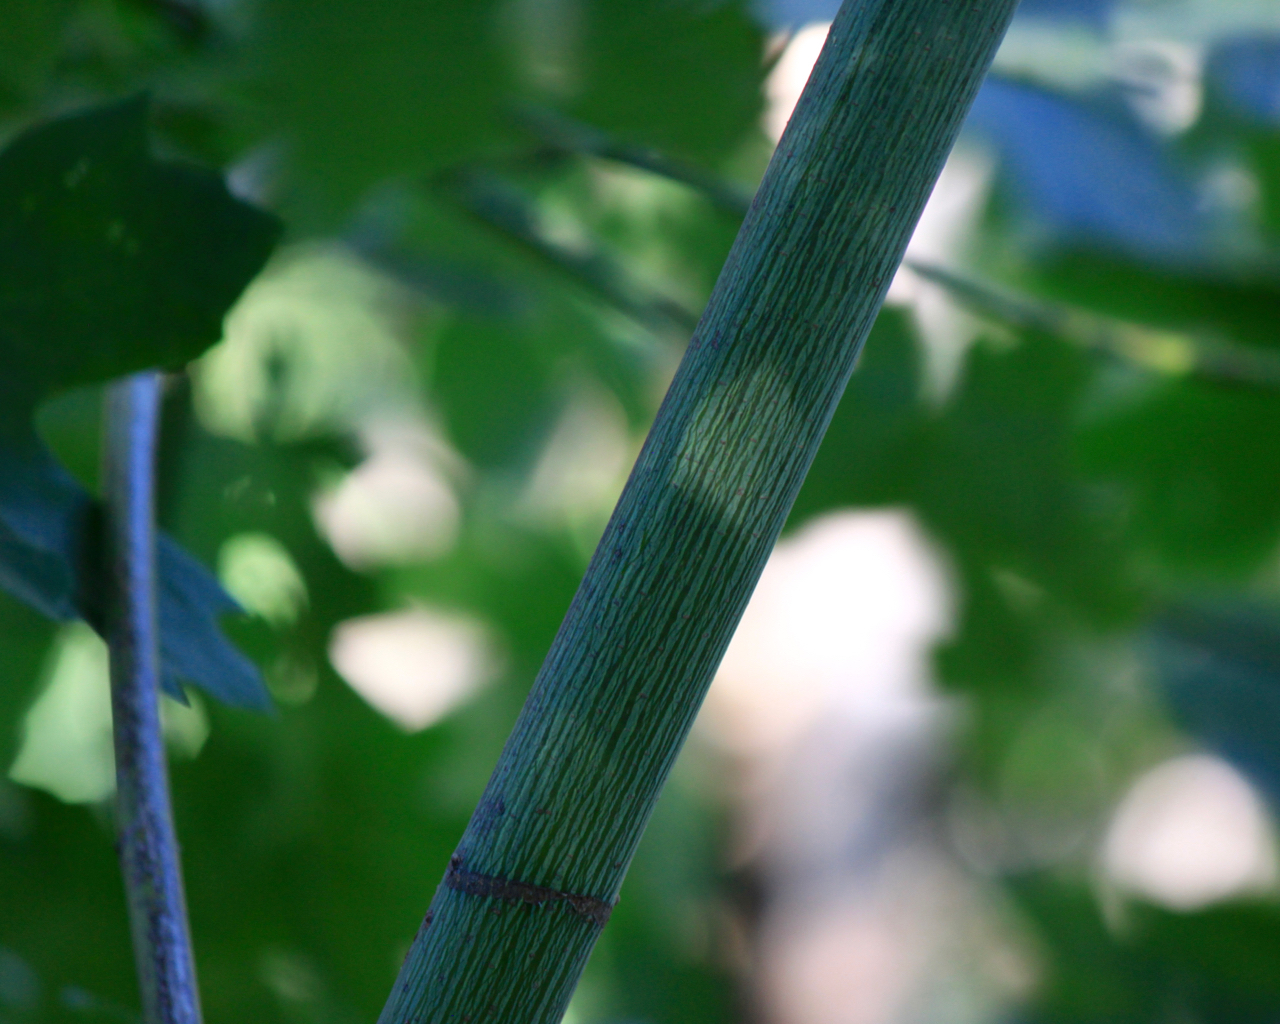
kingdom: Plantae
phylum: Tracheophyta
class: Magnoliopsida
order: Sapindales
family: Sapindaceae
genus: Acer
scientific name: Acer macrophyllum
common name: Oregon maple
